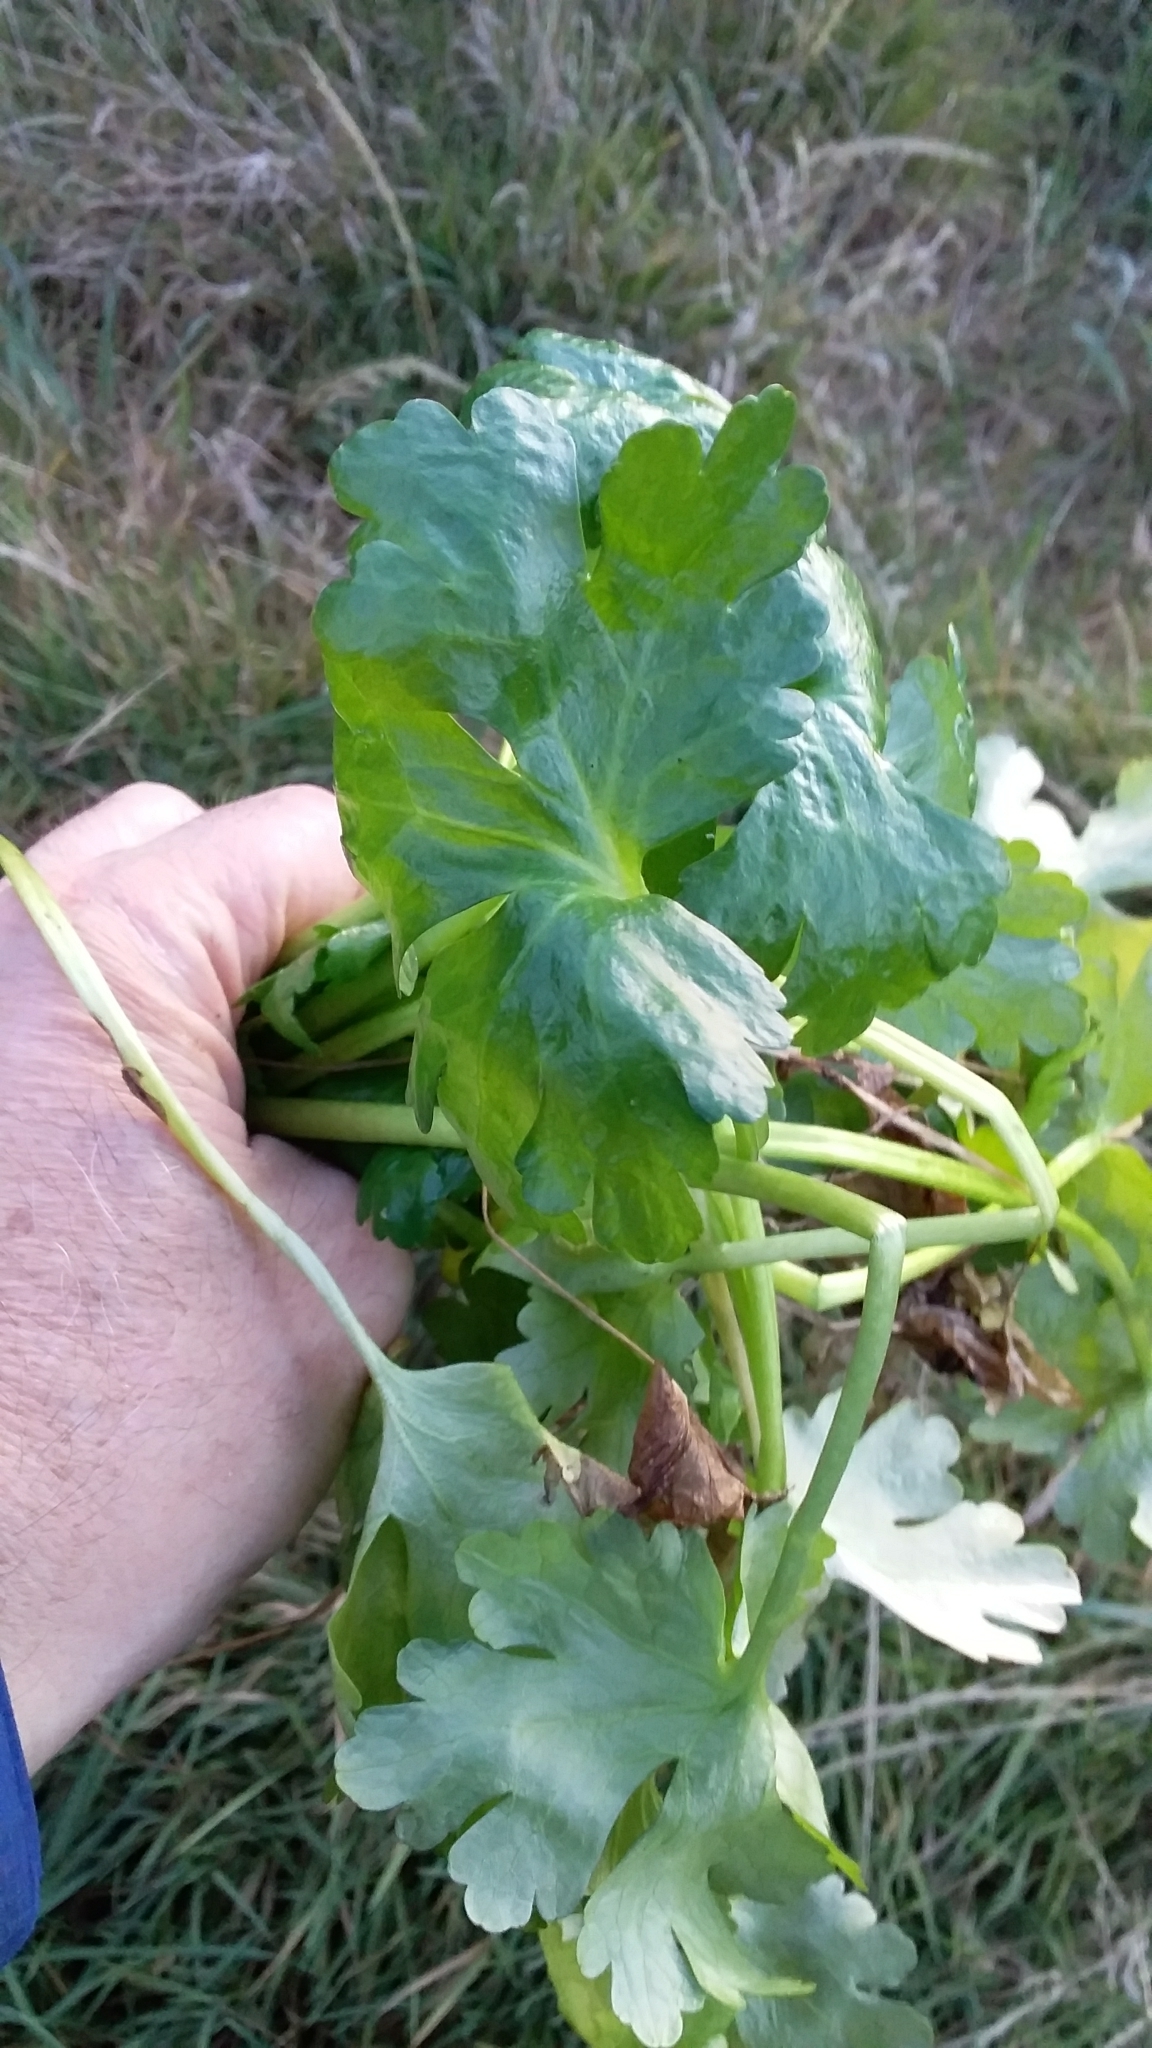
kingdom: Plantae
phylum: Tracheophyta
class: Magnoliopsida
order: Ranunculales
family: Ranunculaceae
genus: Ranunculus
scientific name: Ranunculus sceleratus
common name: Celery-leaved buttercup
